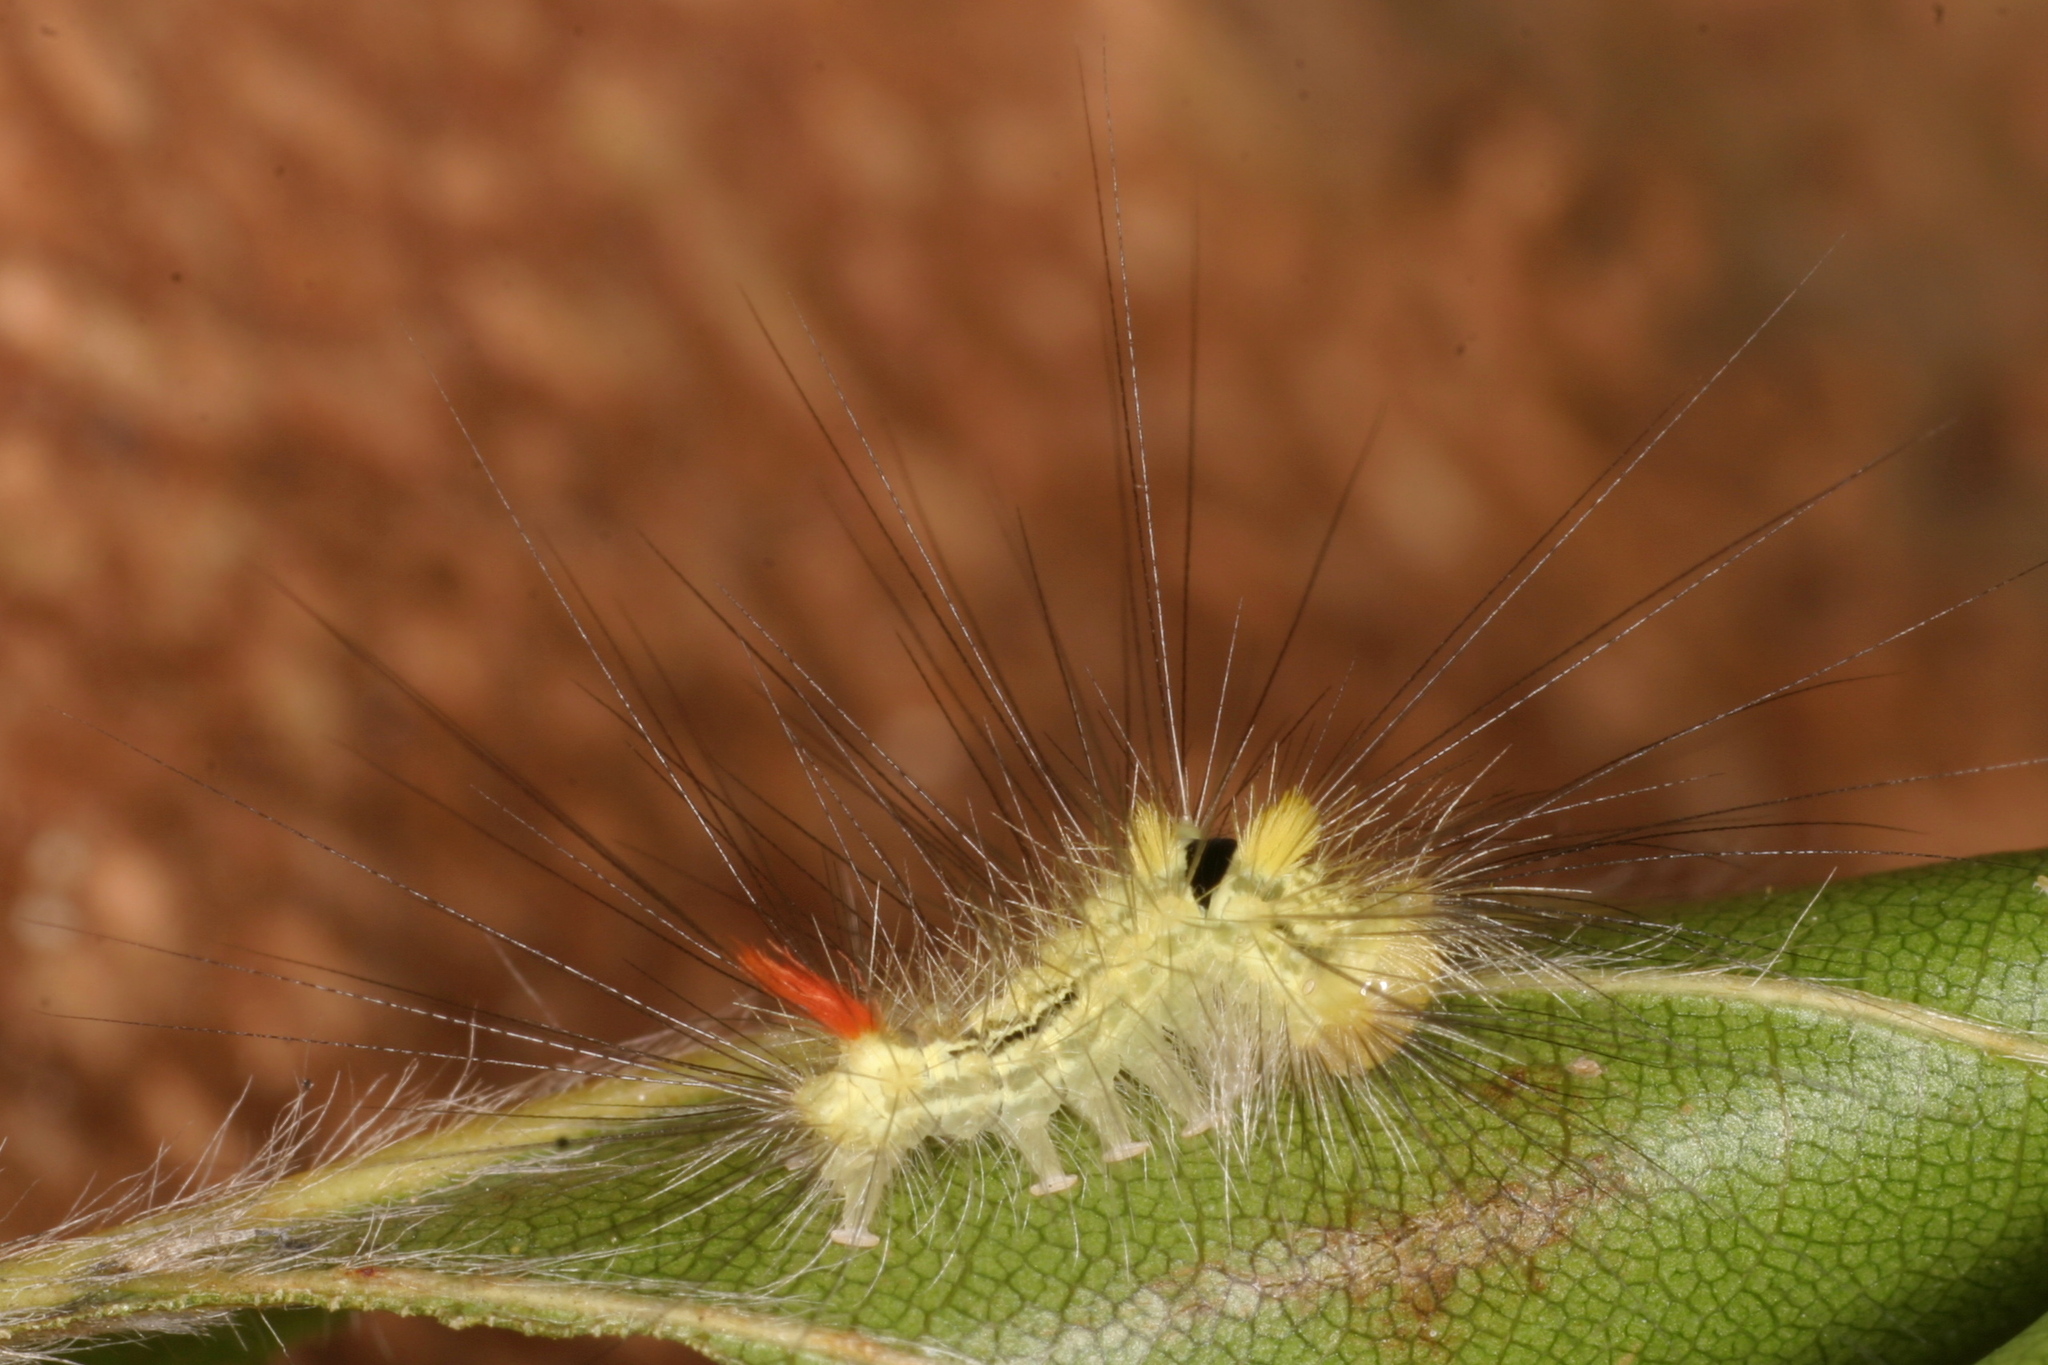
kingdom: Animalia
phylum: Arthropoda
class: Insecta
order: Lepidoptera
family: Erebidae
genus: Calliteara
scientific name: Calliteara pudibunda
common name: Pale tussock
